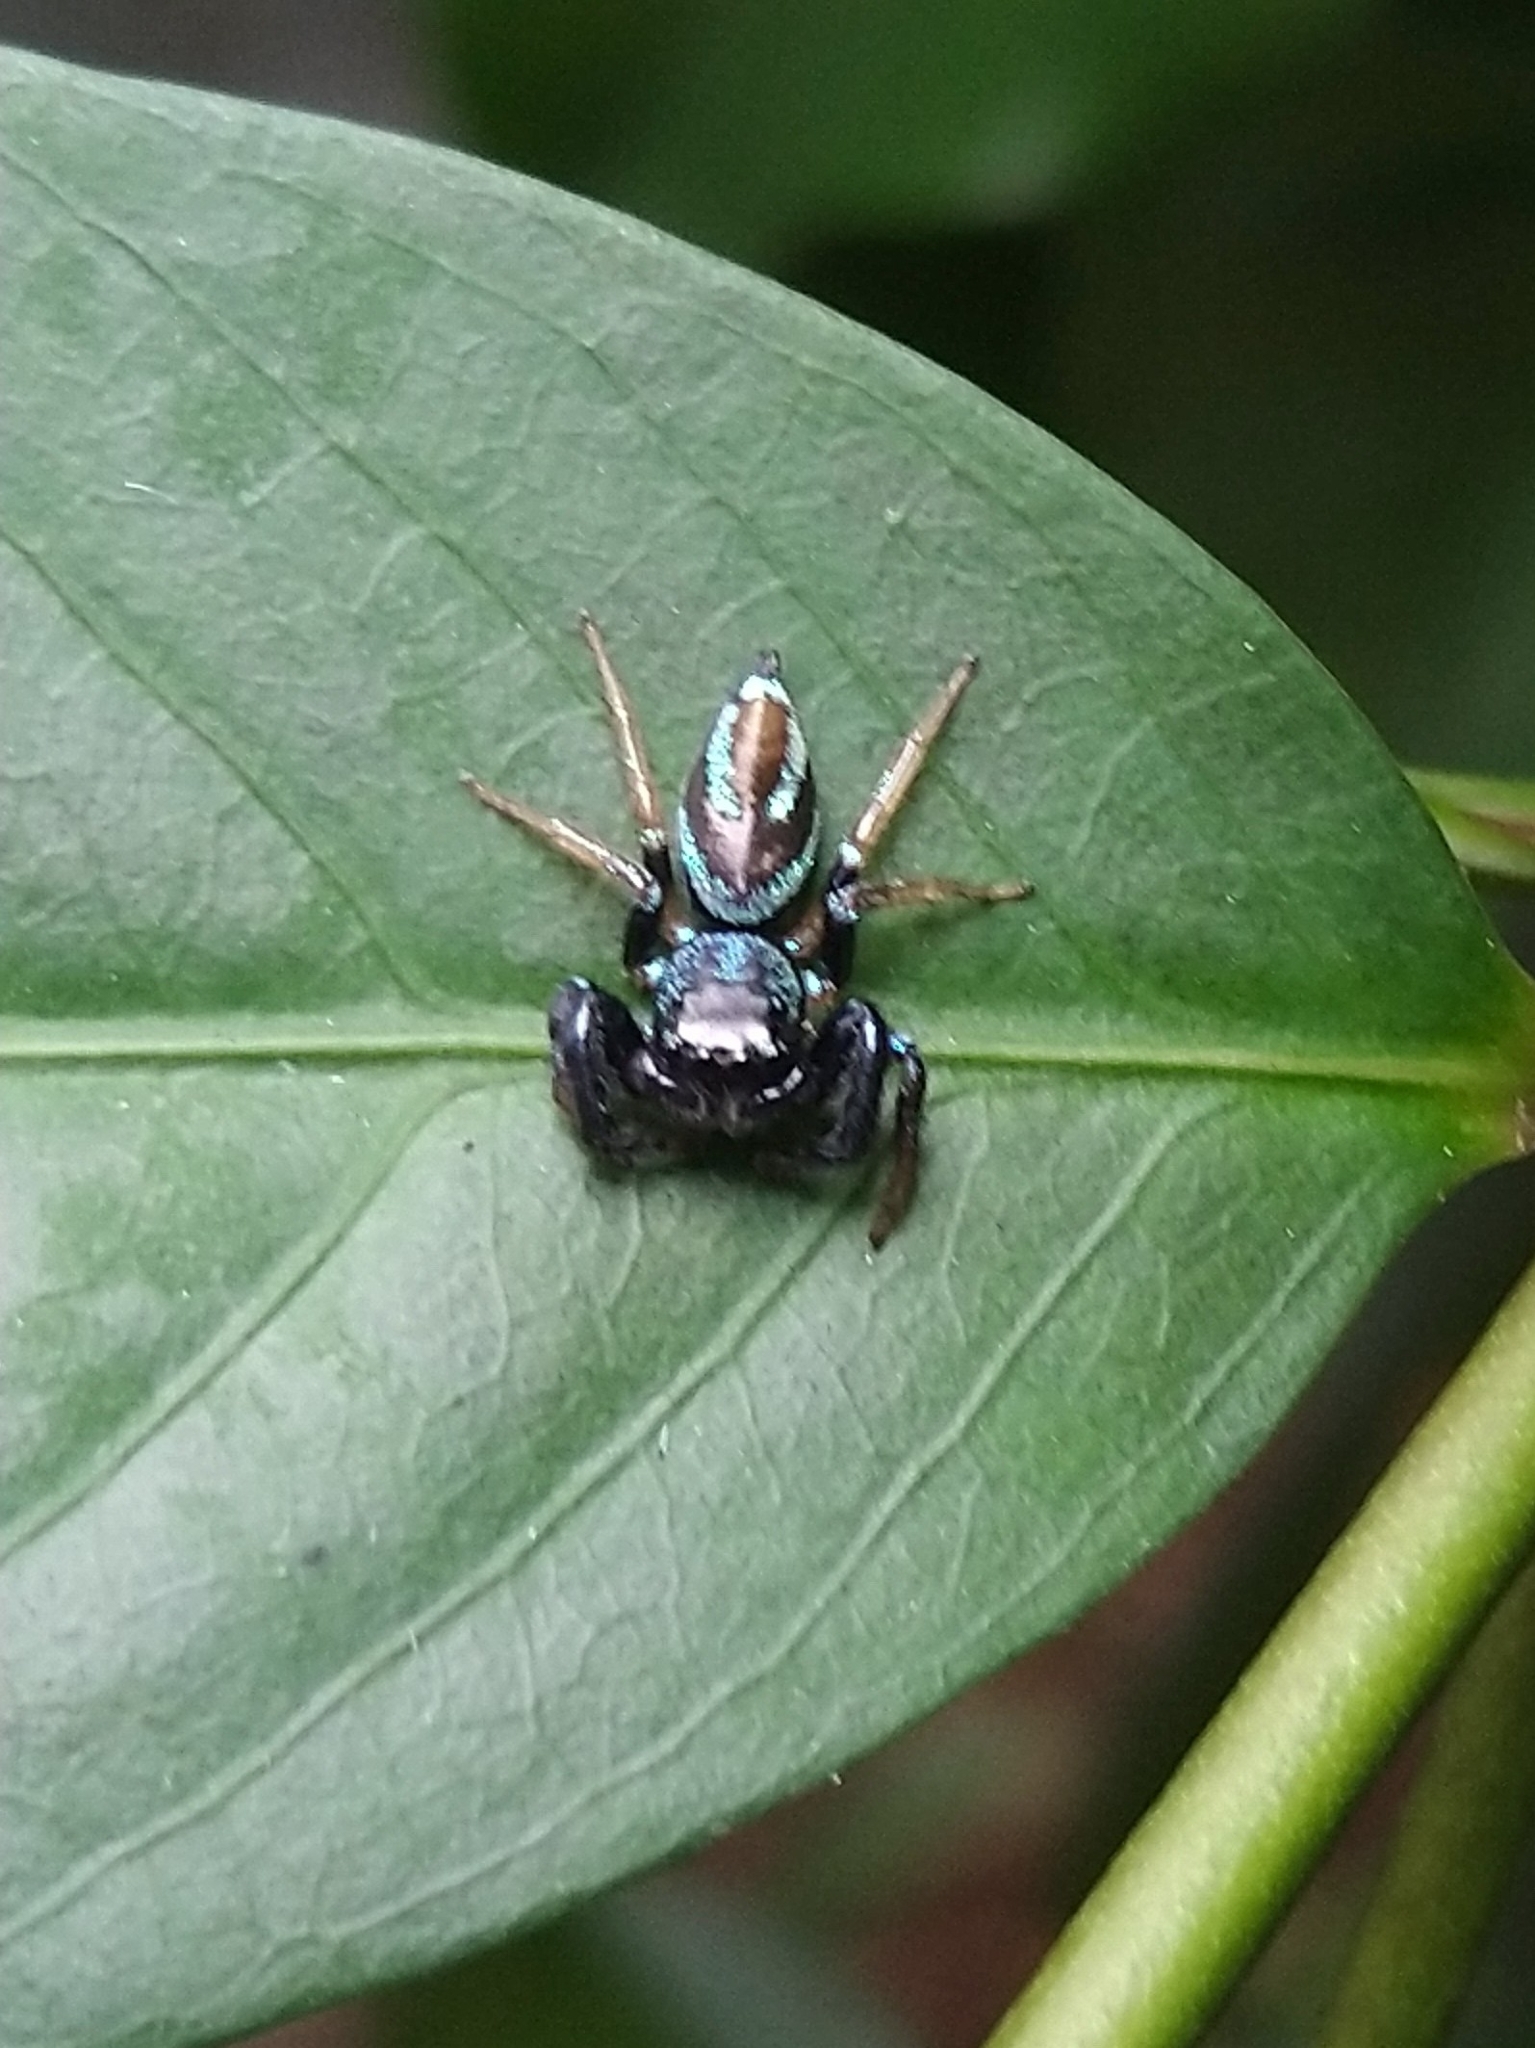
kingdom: Animalia
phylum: Arthropoda
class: Arachnida
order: Araneae
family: Salticidae
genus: Thiania
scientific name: Thiania bhamoensis
